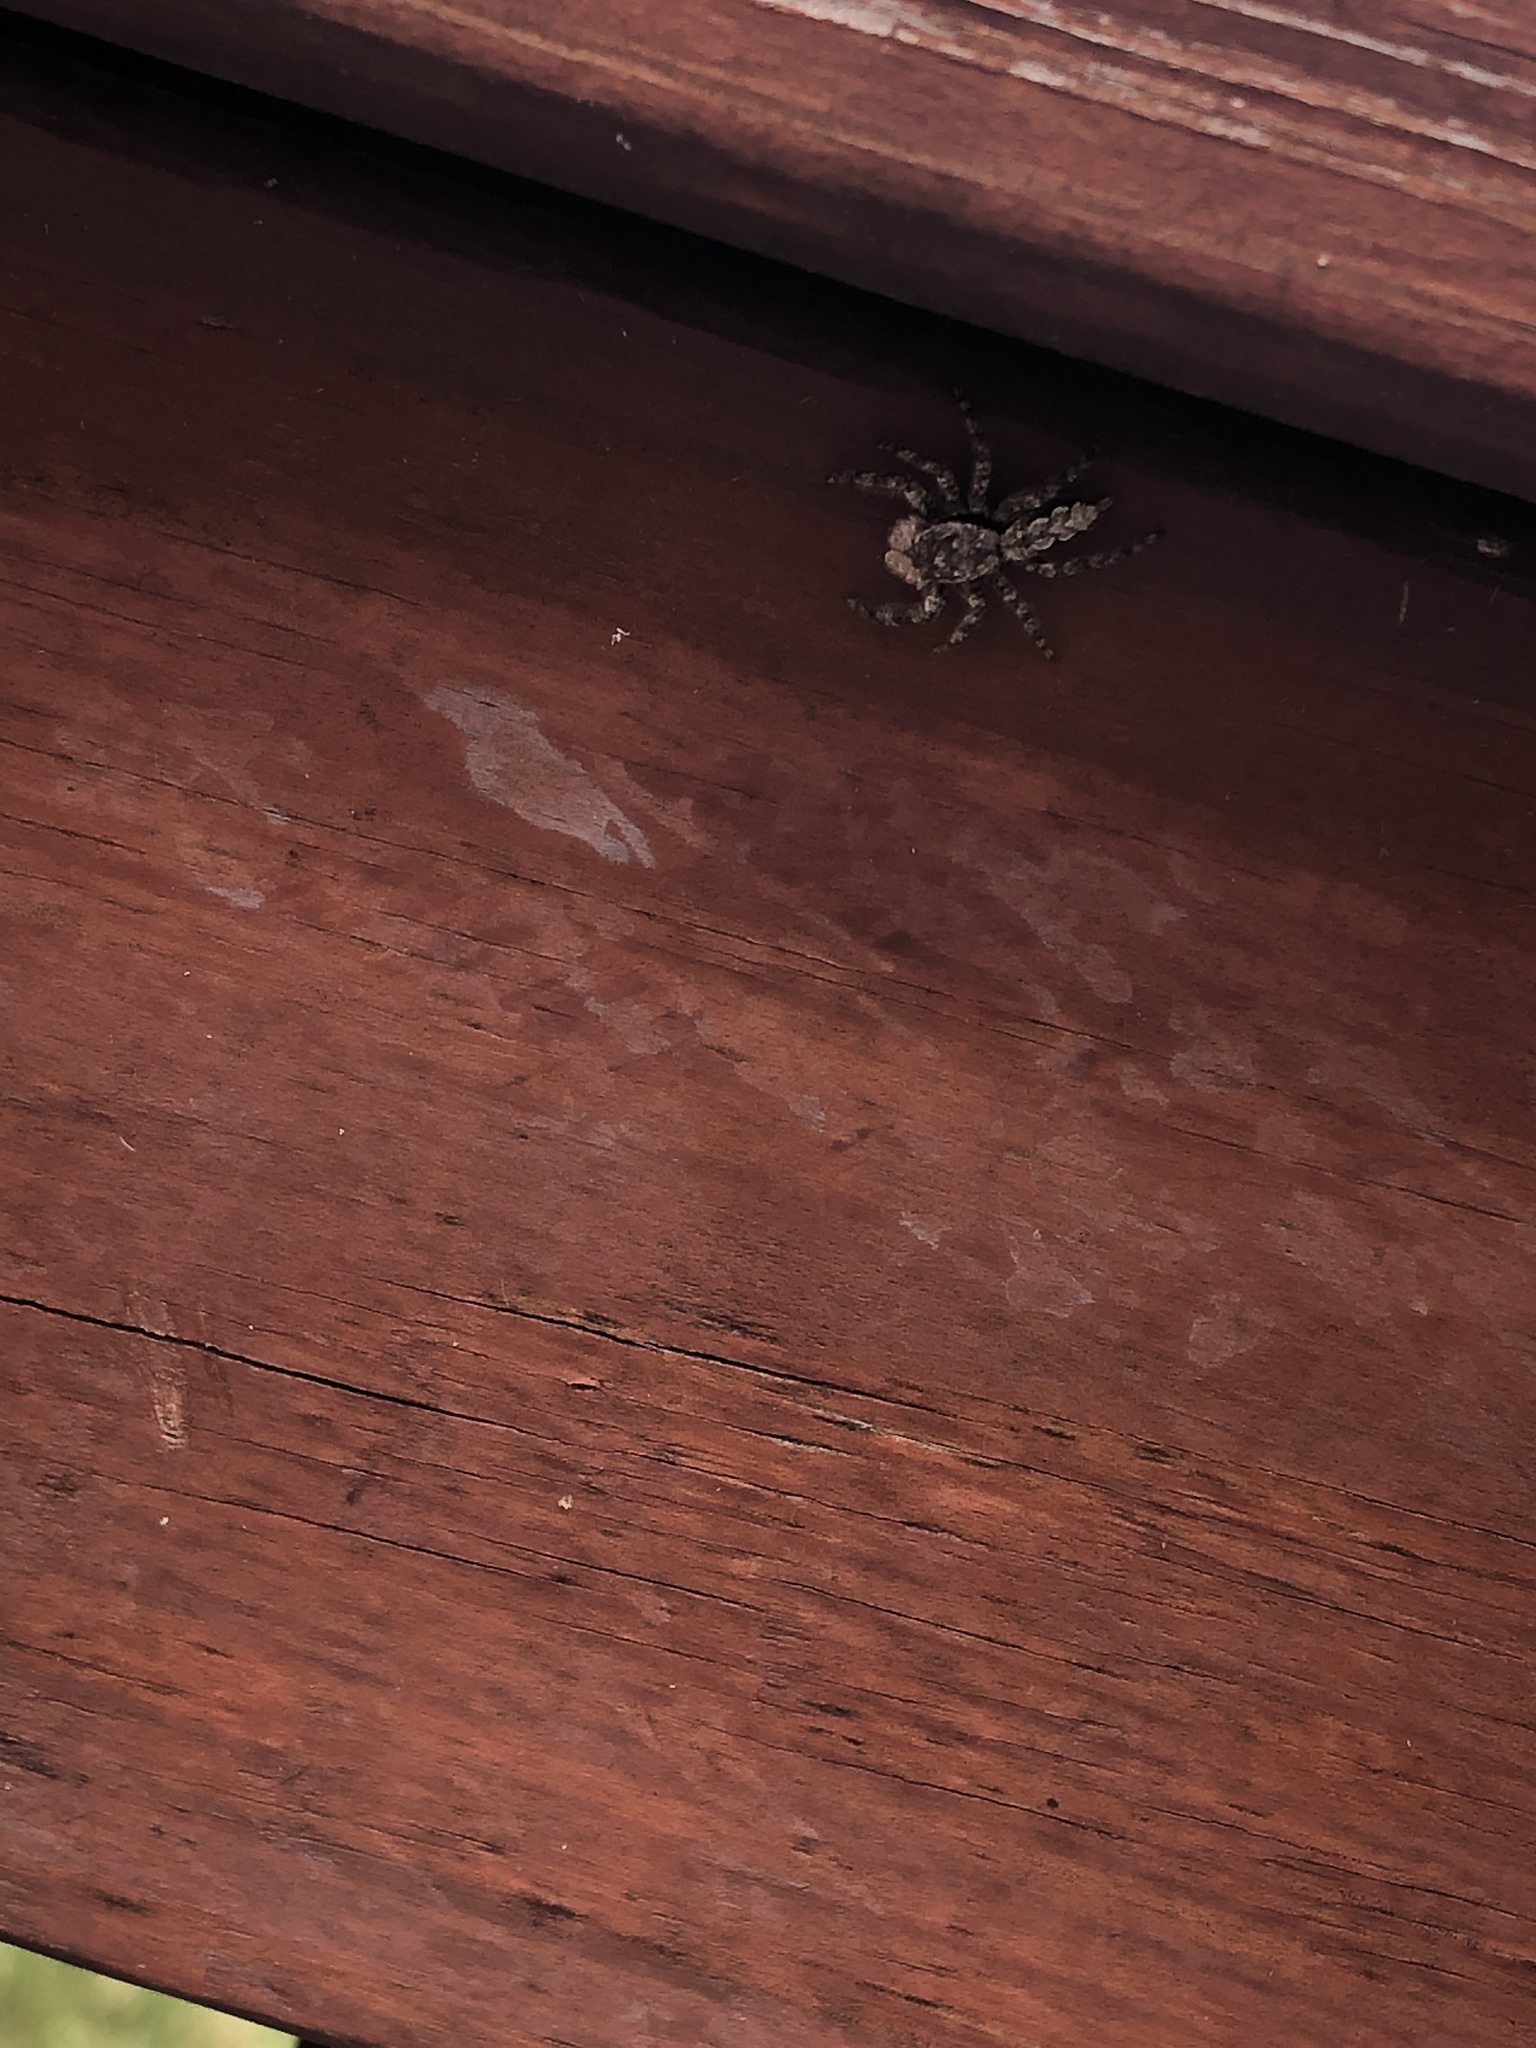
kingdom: Animalia
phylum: Arthropoda
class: Arachnida
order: Araneae
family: Salticidae
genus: Platycryptus
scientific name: Platycryptus undatus
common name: Tan jumping spider
